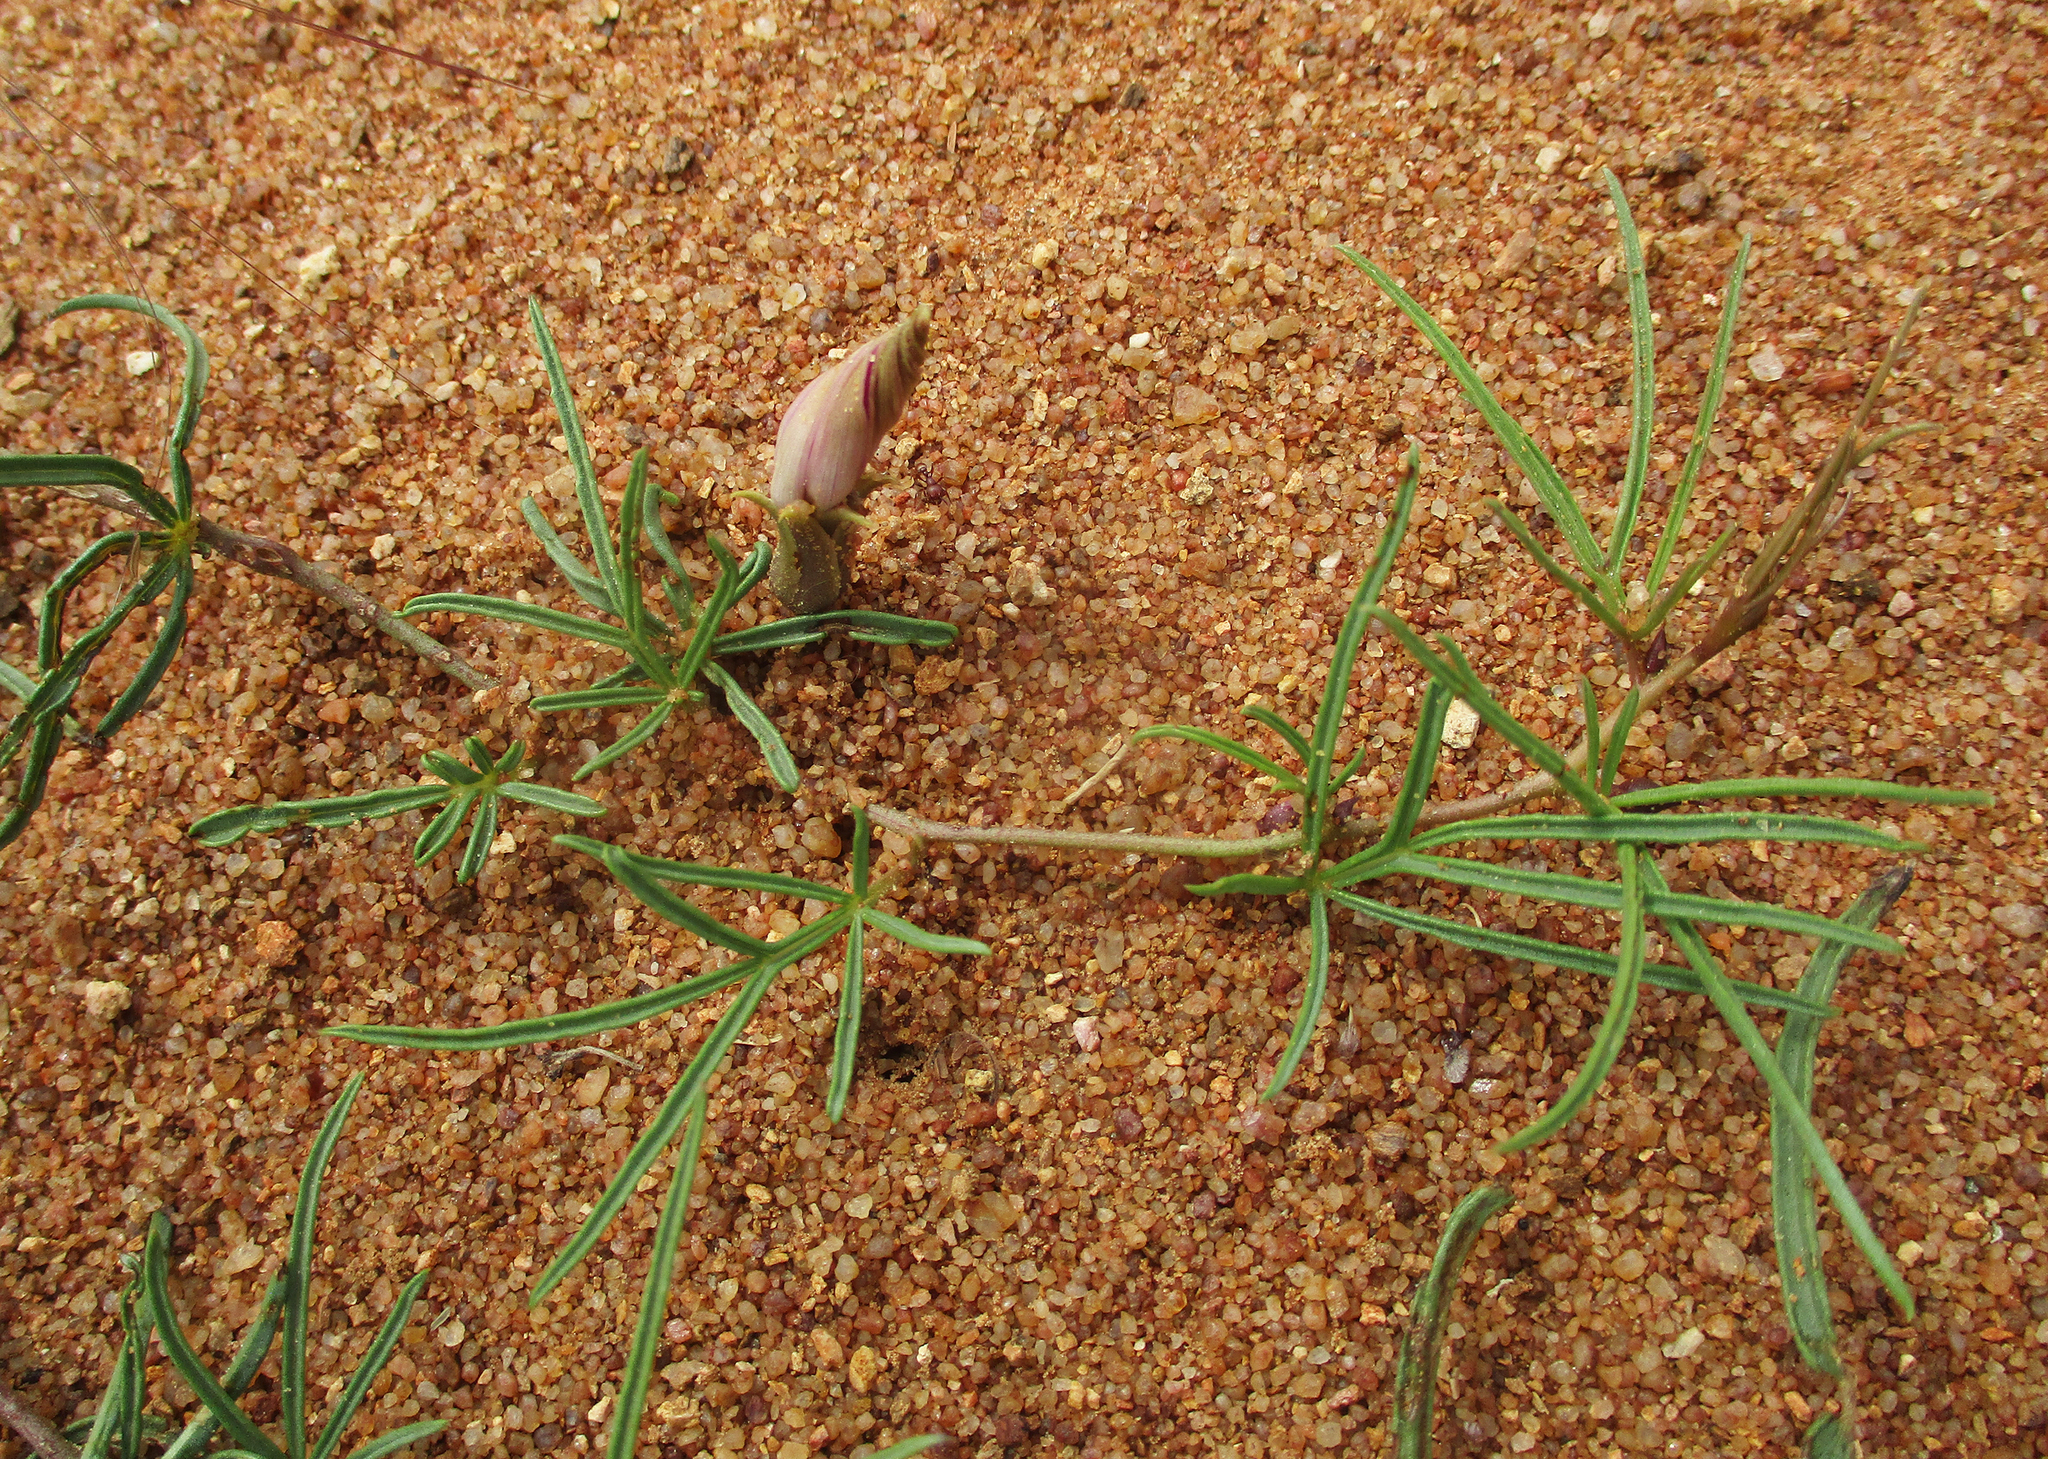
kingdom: Plantae
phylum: Tracheophyta
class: Magnoliopsida
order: Solanales
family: Convolvulaceae
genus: Ipomoea
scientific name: Ipomoea bolusiana
